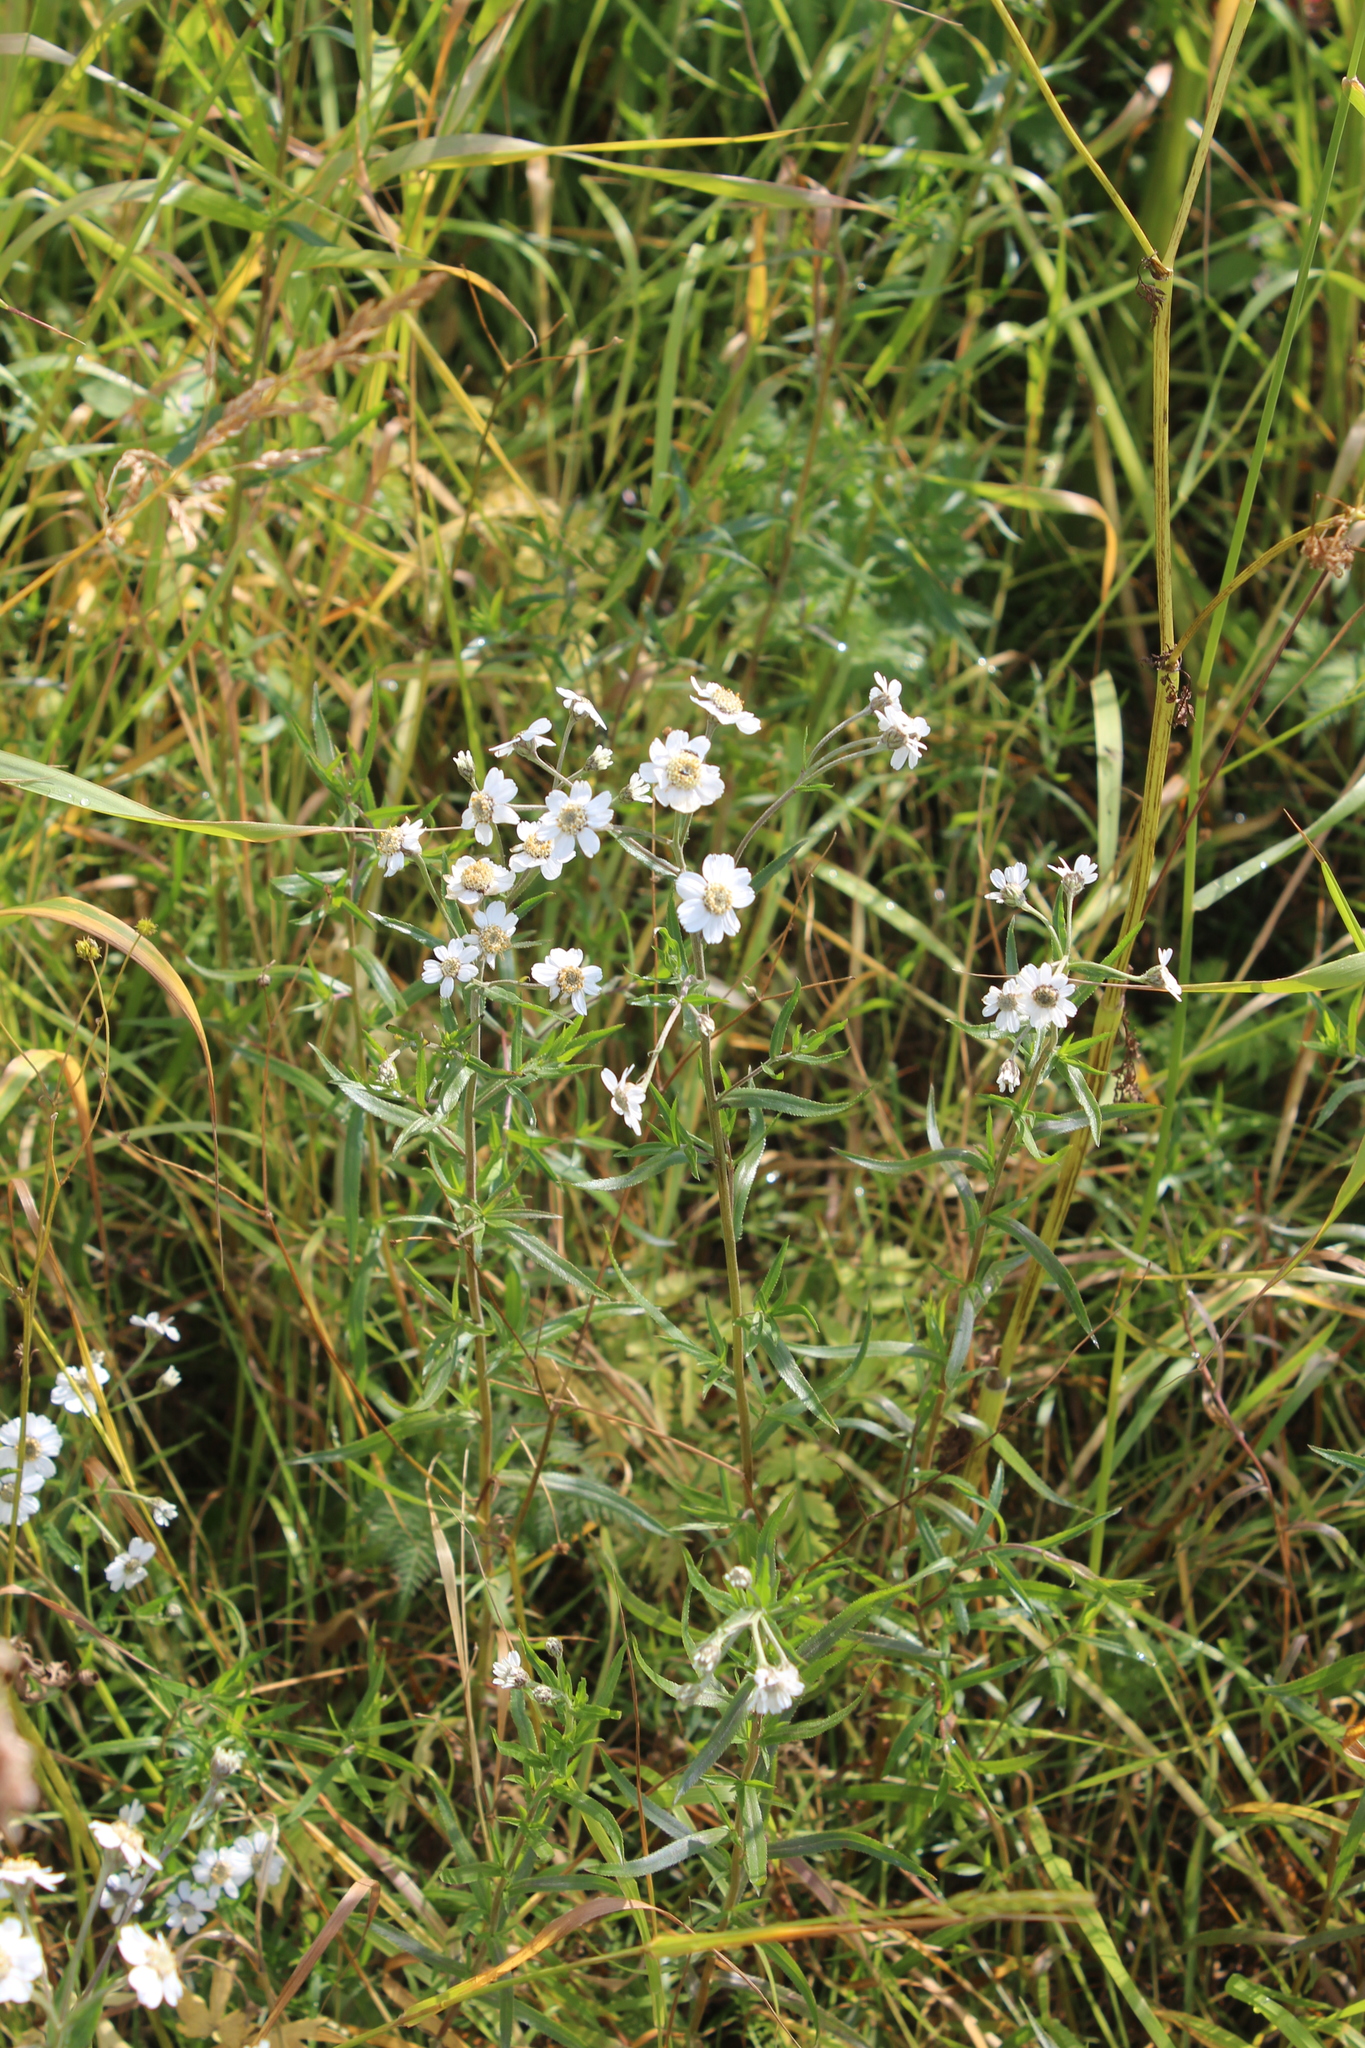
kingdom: Plantae
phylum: Tracheophyta
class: Magnoliopsida
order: Asterales
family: Asteraceae
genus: Achillea
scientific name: Achillea ptarmica
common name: Sneezeweed
